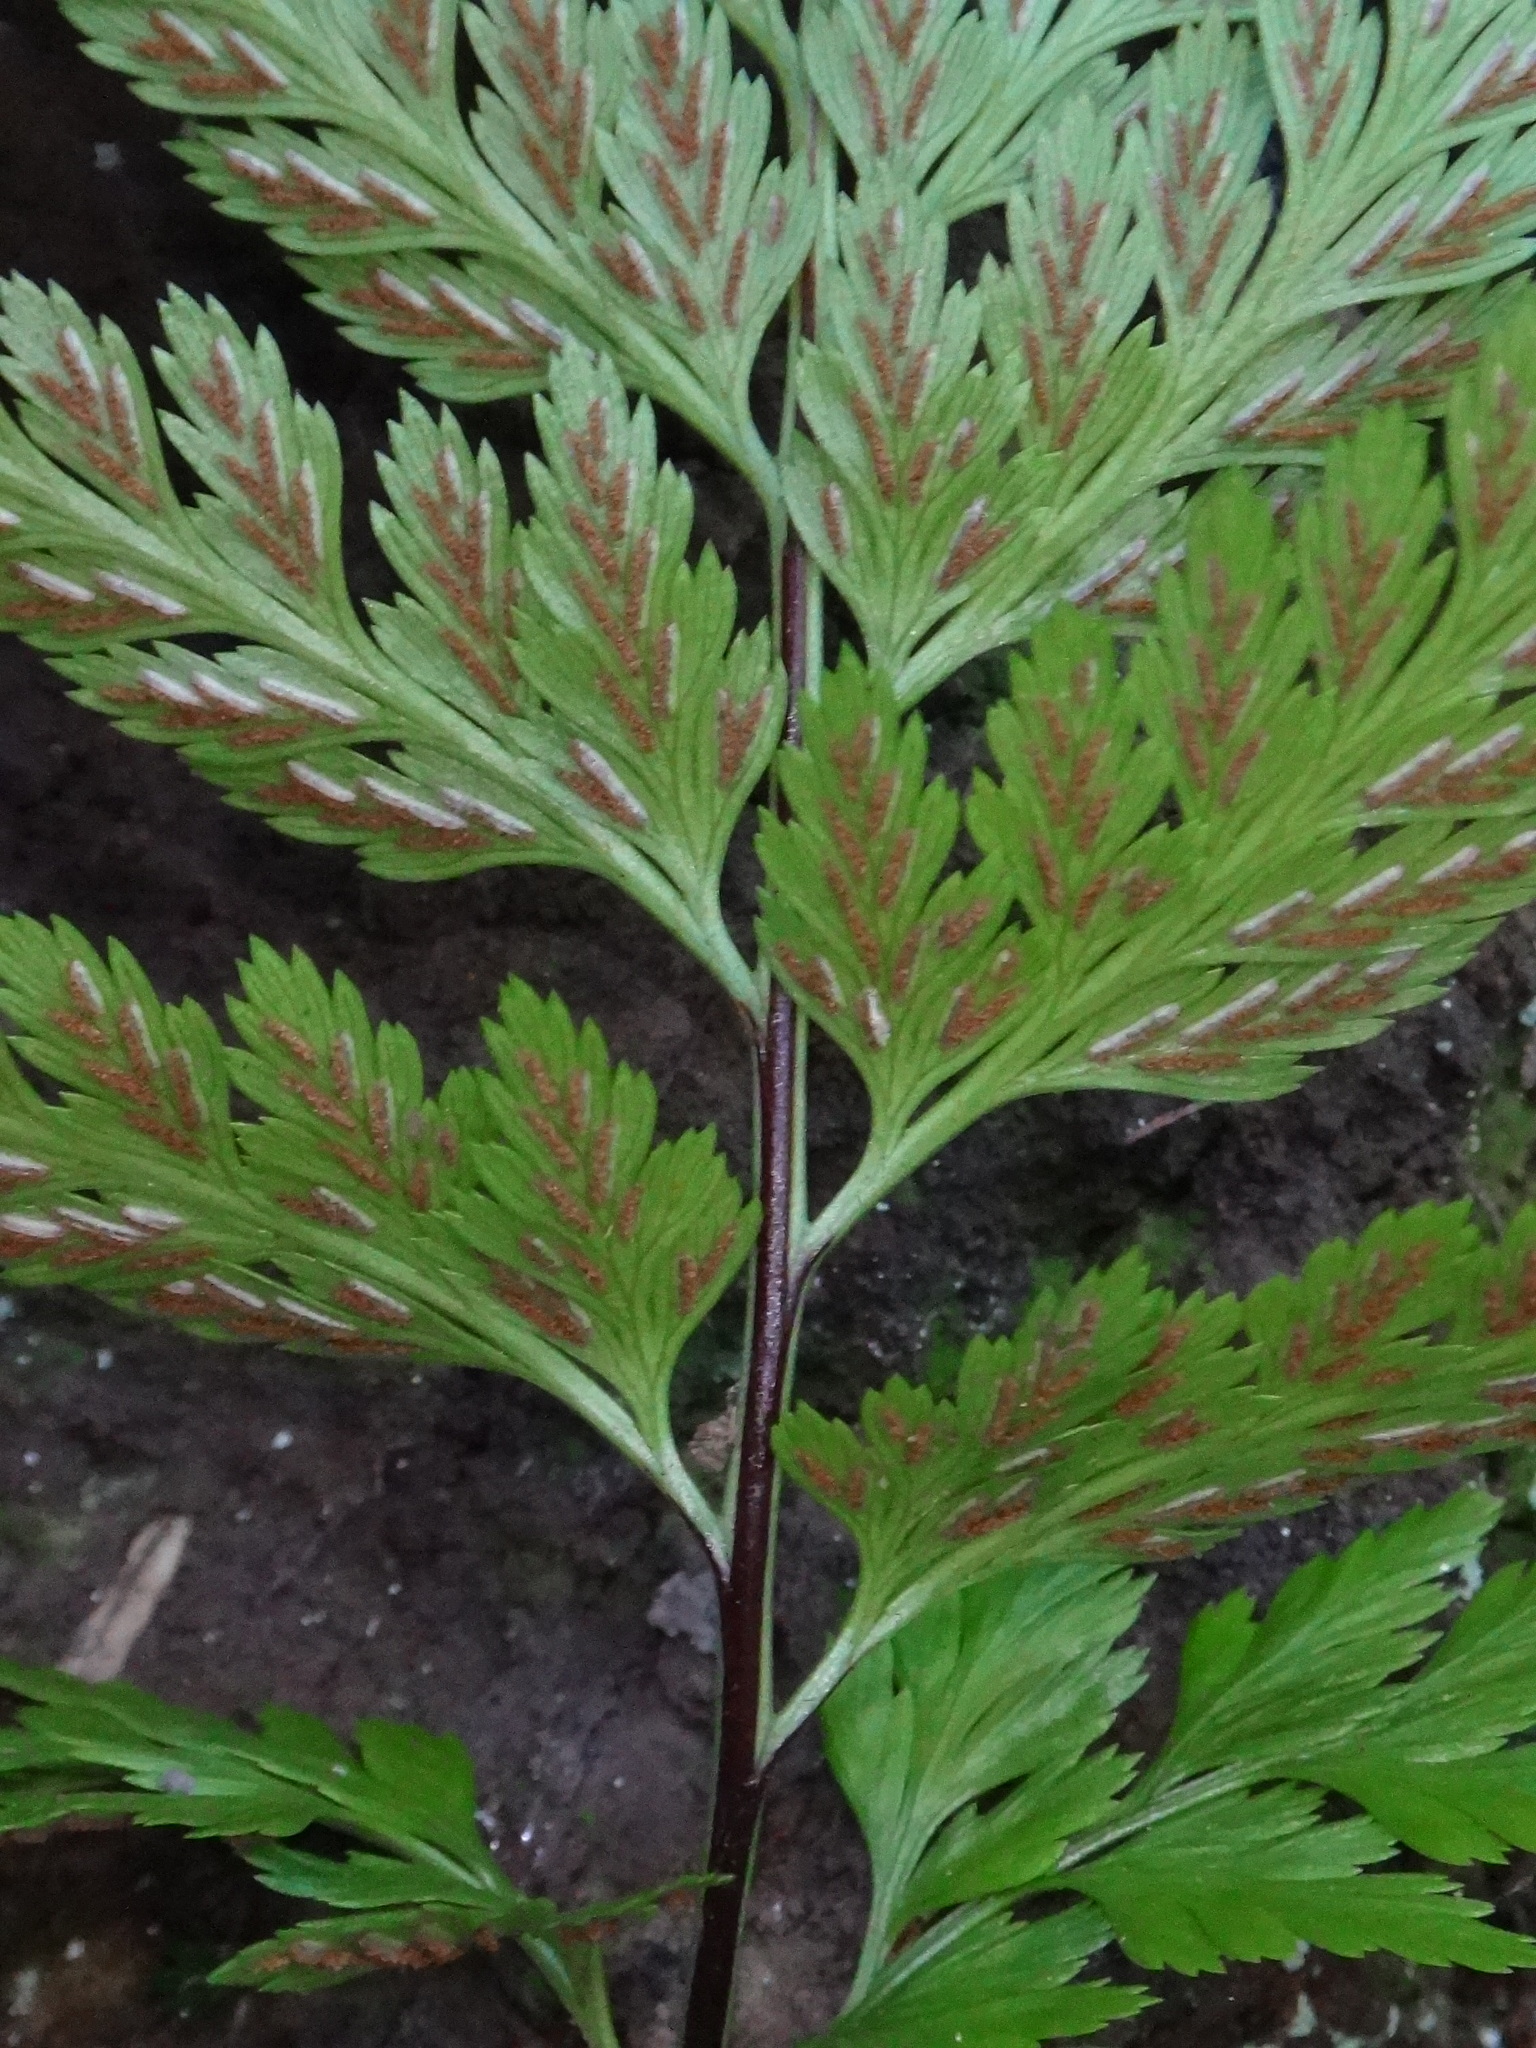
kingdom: Plantae
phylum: Tracheophyta
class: Polypodiopsida
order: Polypodiales
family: Aspleniaceae
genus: Asplenium
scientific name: Asplenium onopteris
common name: Irish spleenwort
